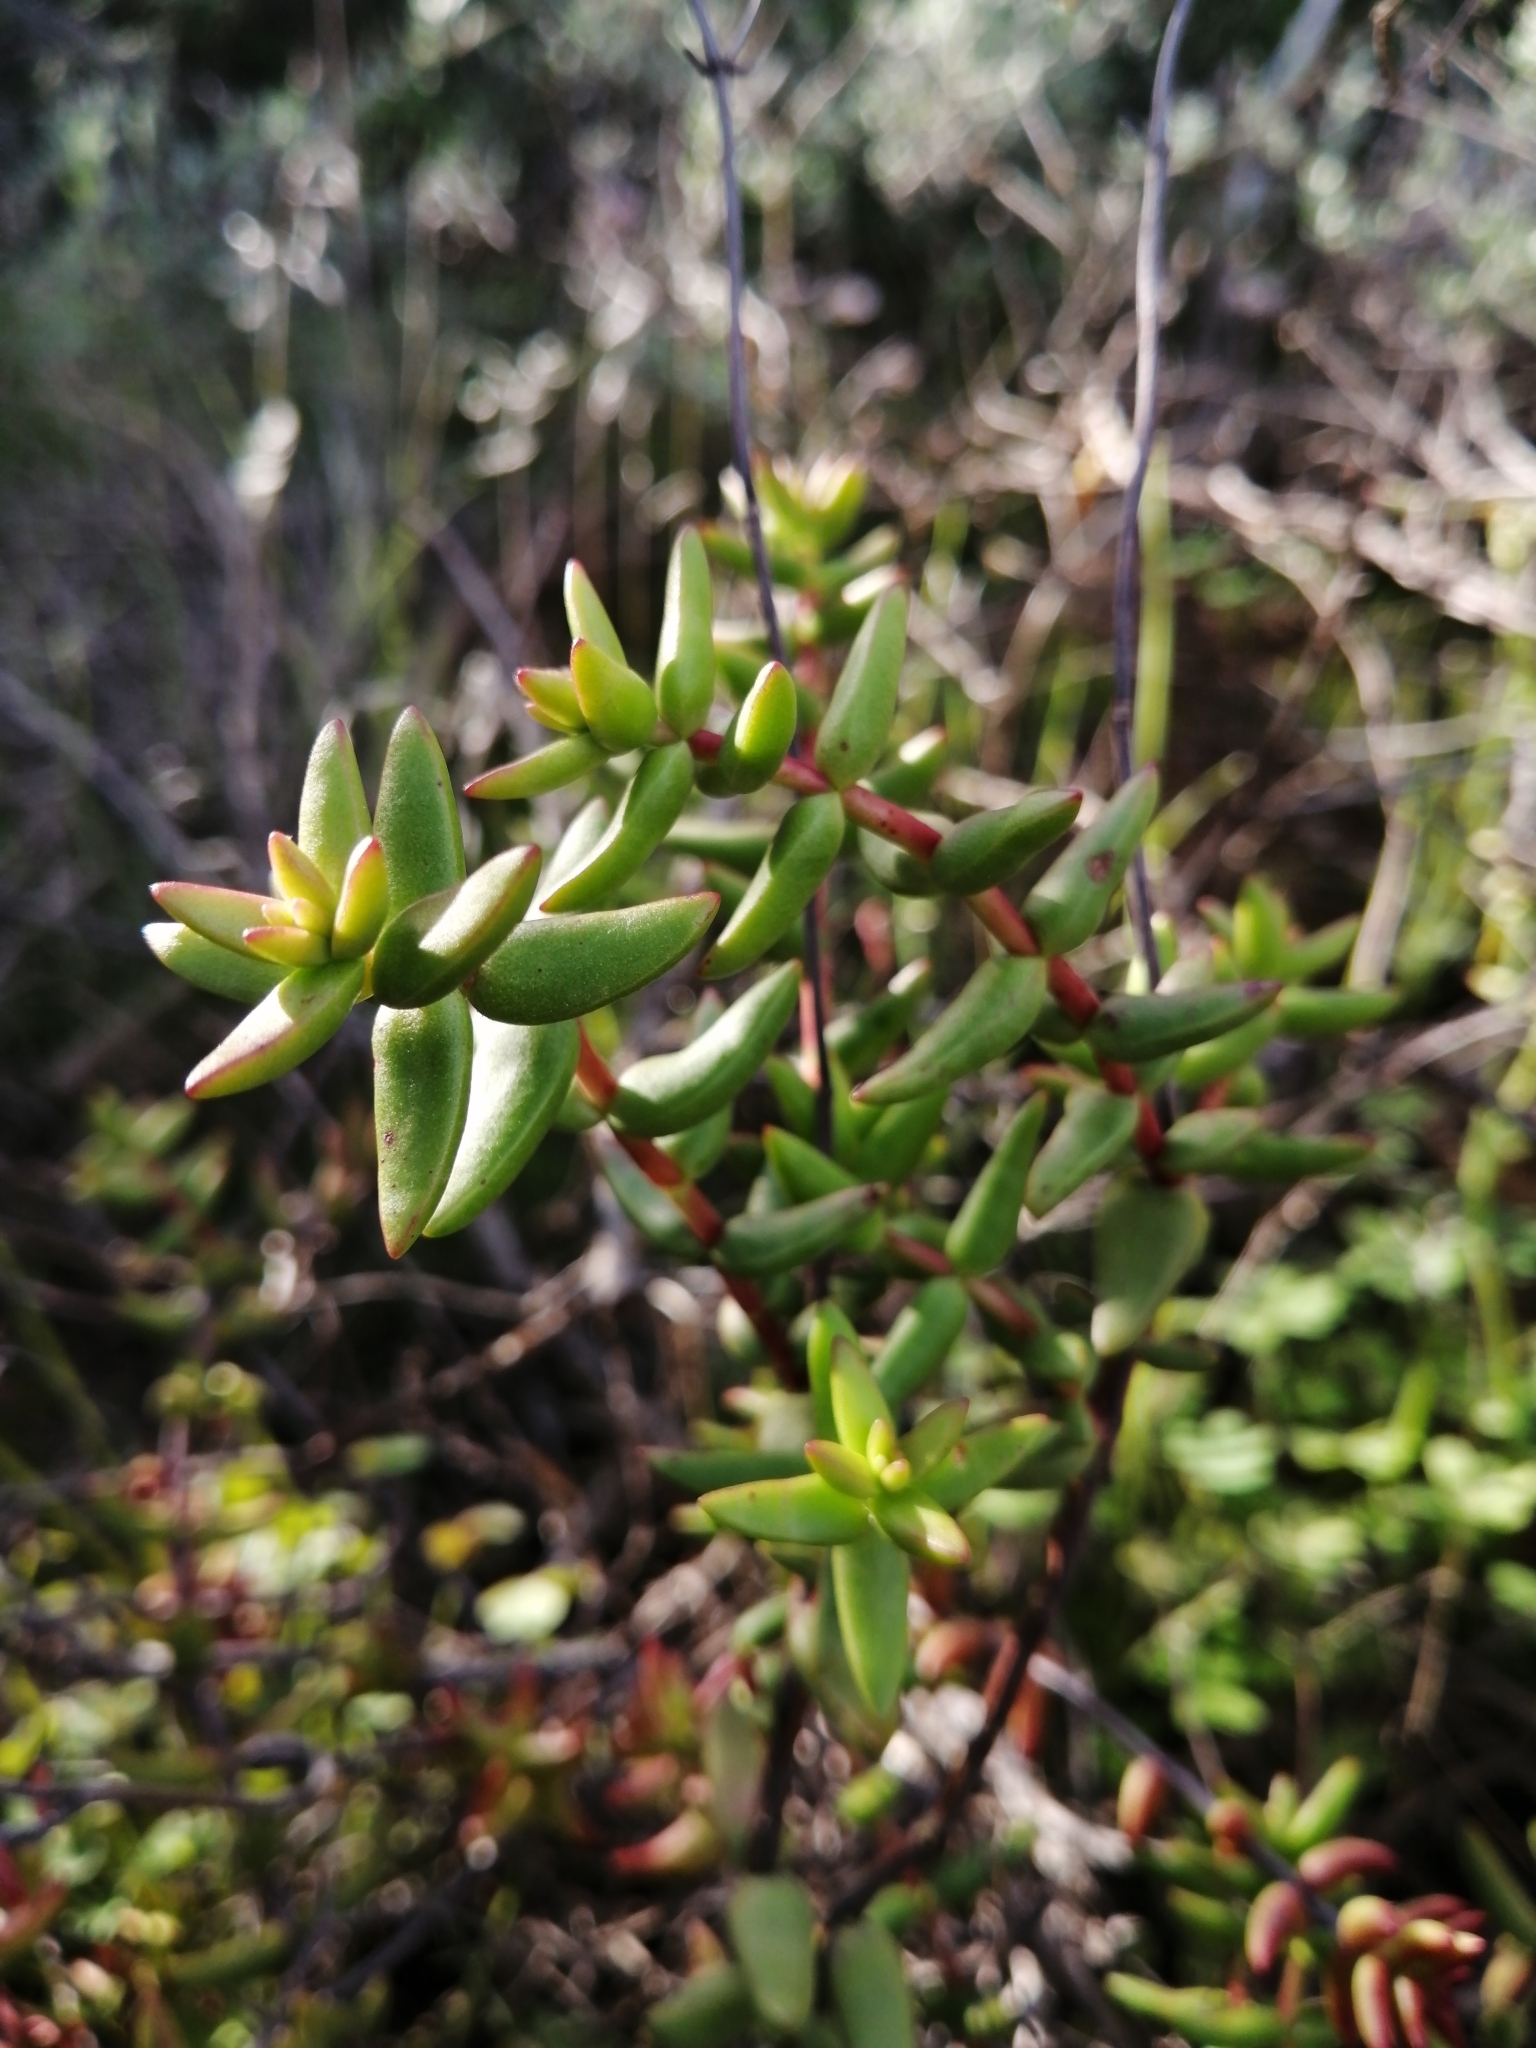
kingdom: Plantae
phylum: Tracheophyta
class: Magnoliopsida
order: Saxifragales
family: Crassulaceae
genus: Crassula
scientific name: Crassula subaphylla
